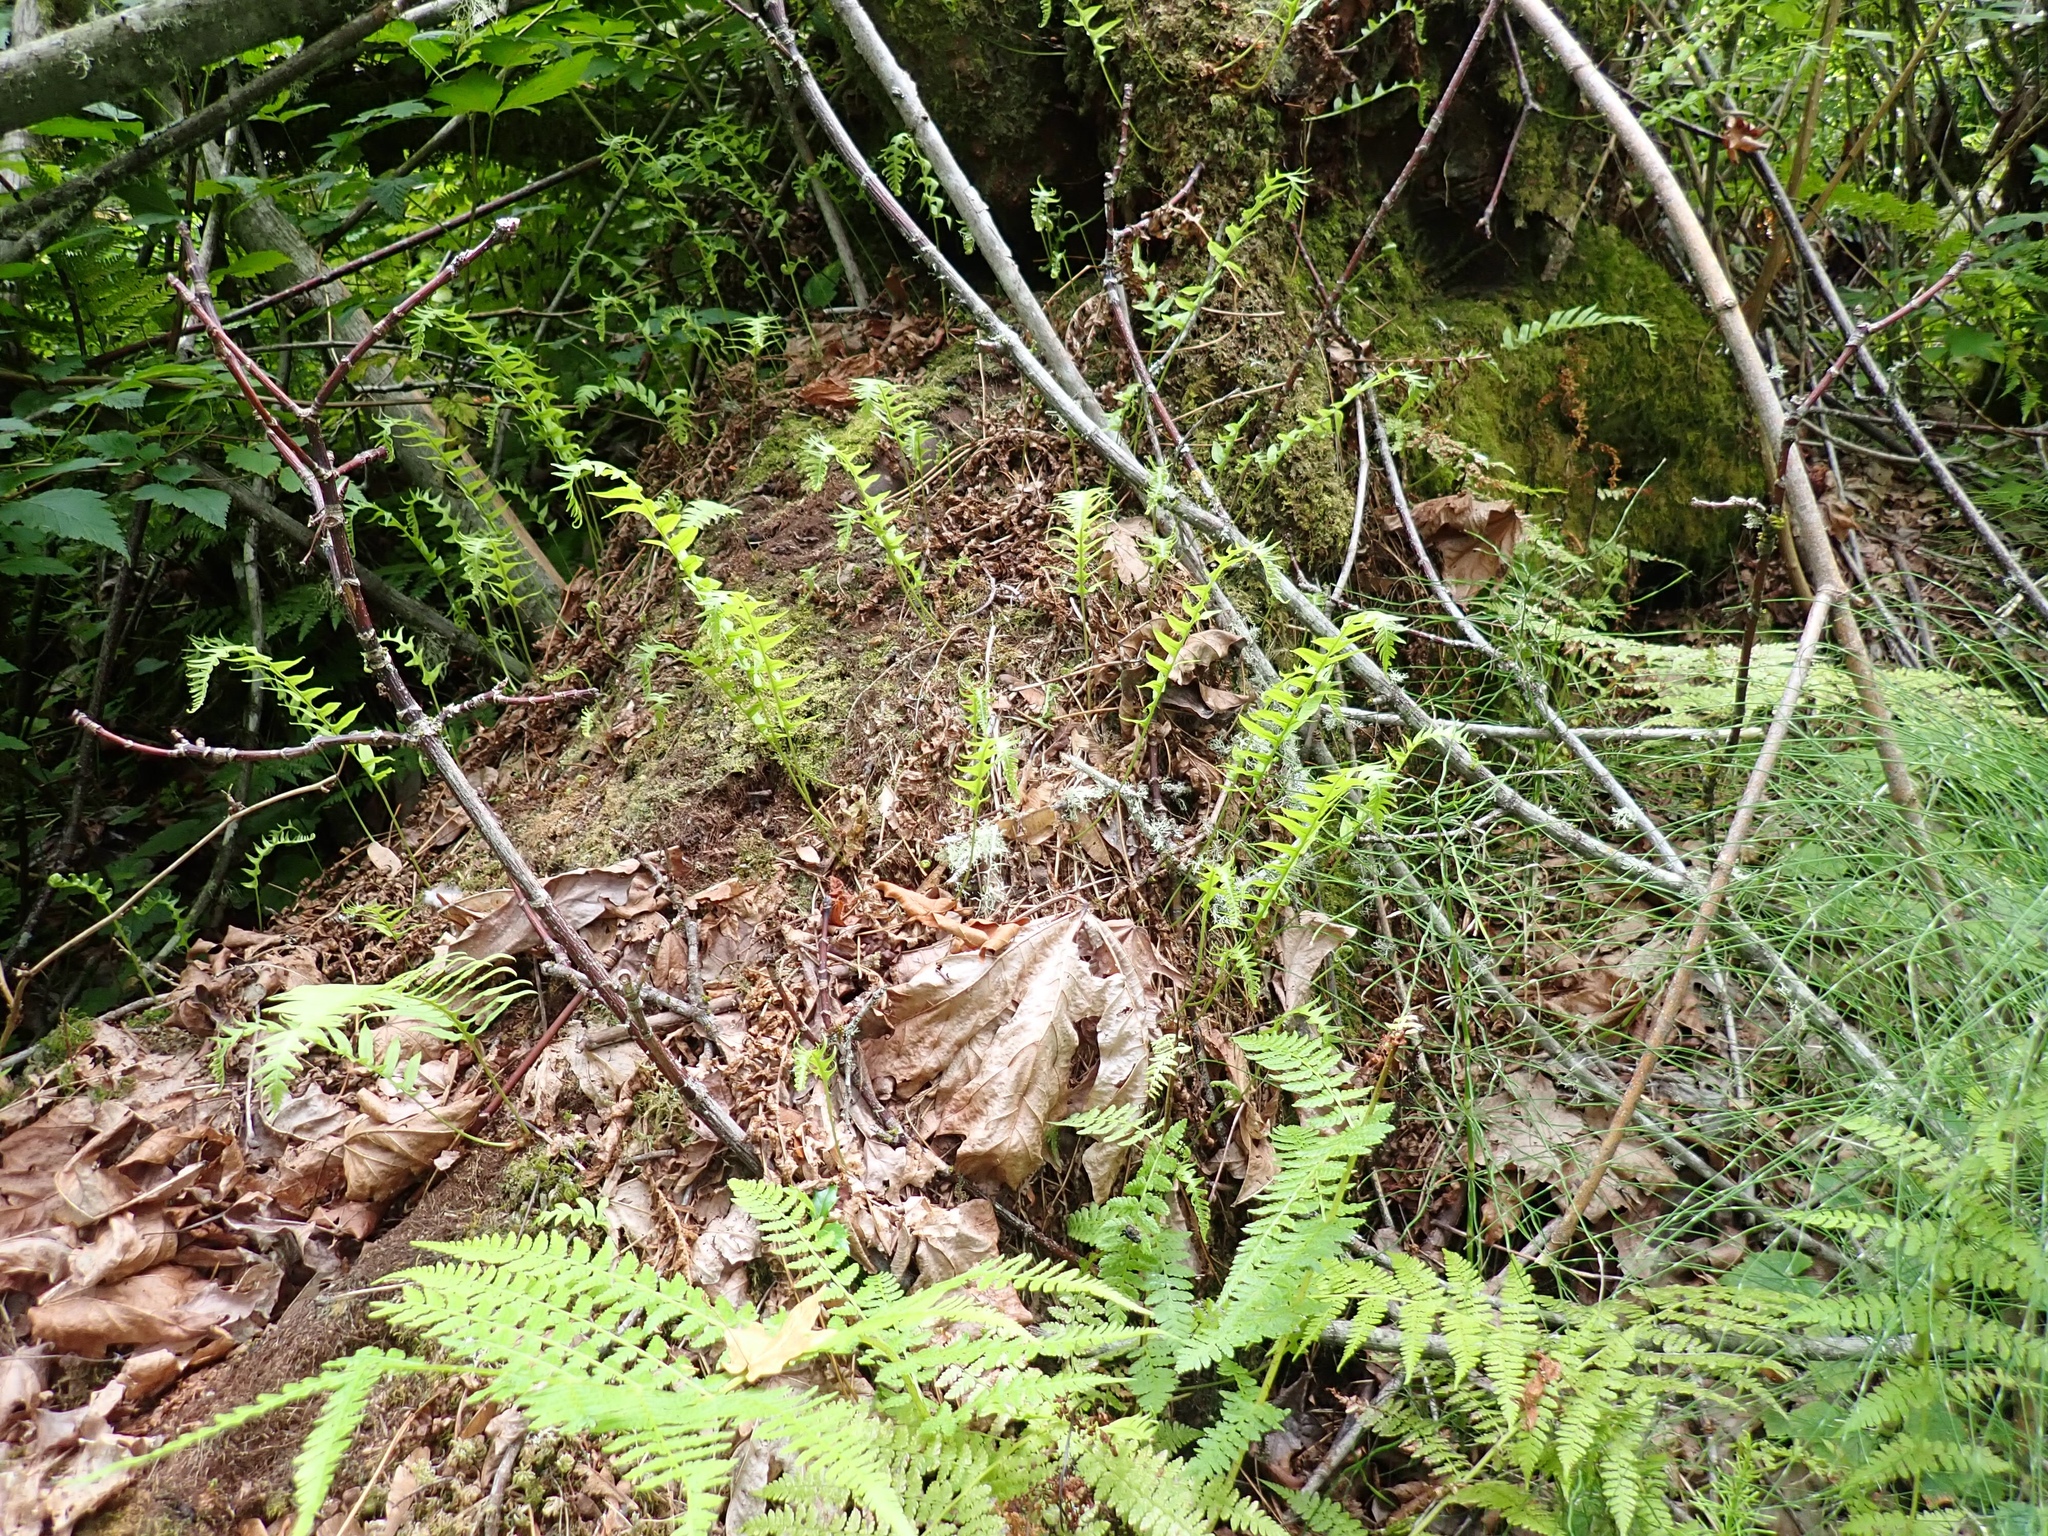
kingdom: Plantae
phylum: Tracheophyta
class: Polypodiopsida
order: Polypodiales
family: Polypodiaceae
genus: Polypodium
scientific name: Polypodium glycyrrhiza
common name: Licorice fern
